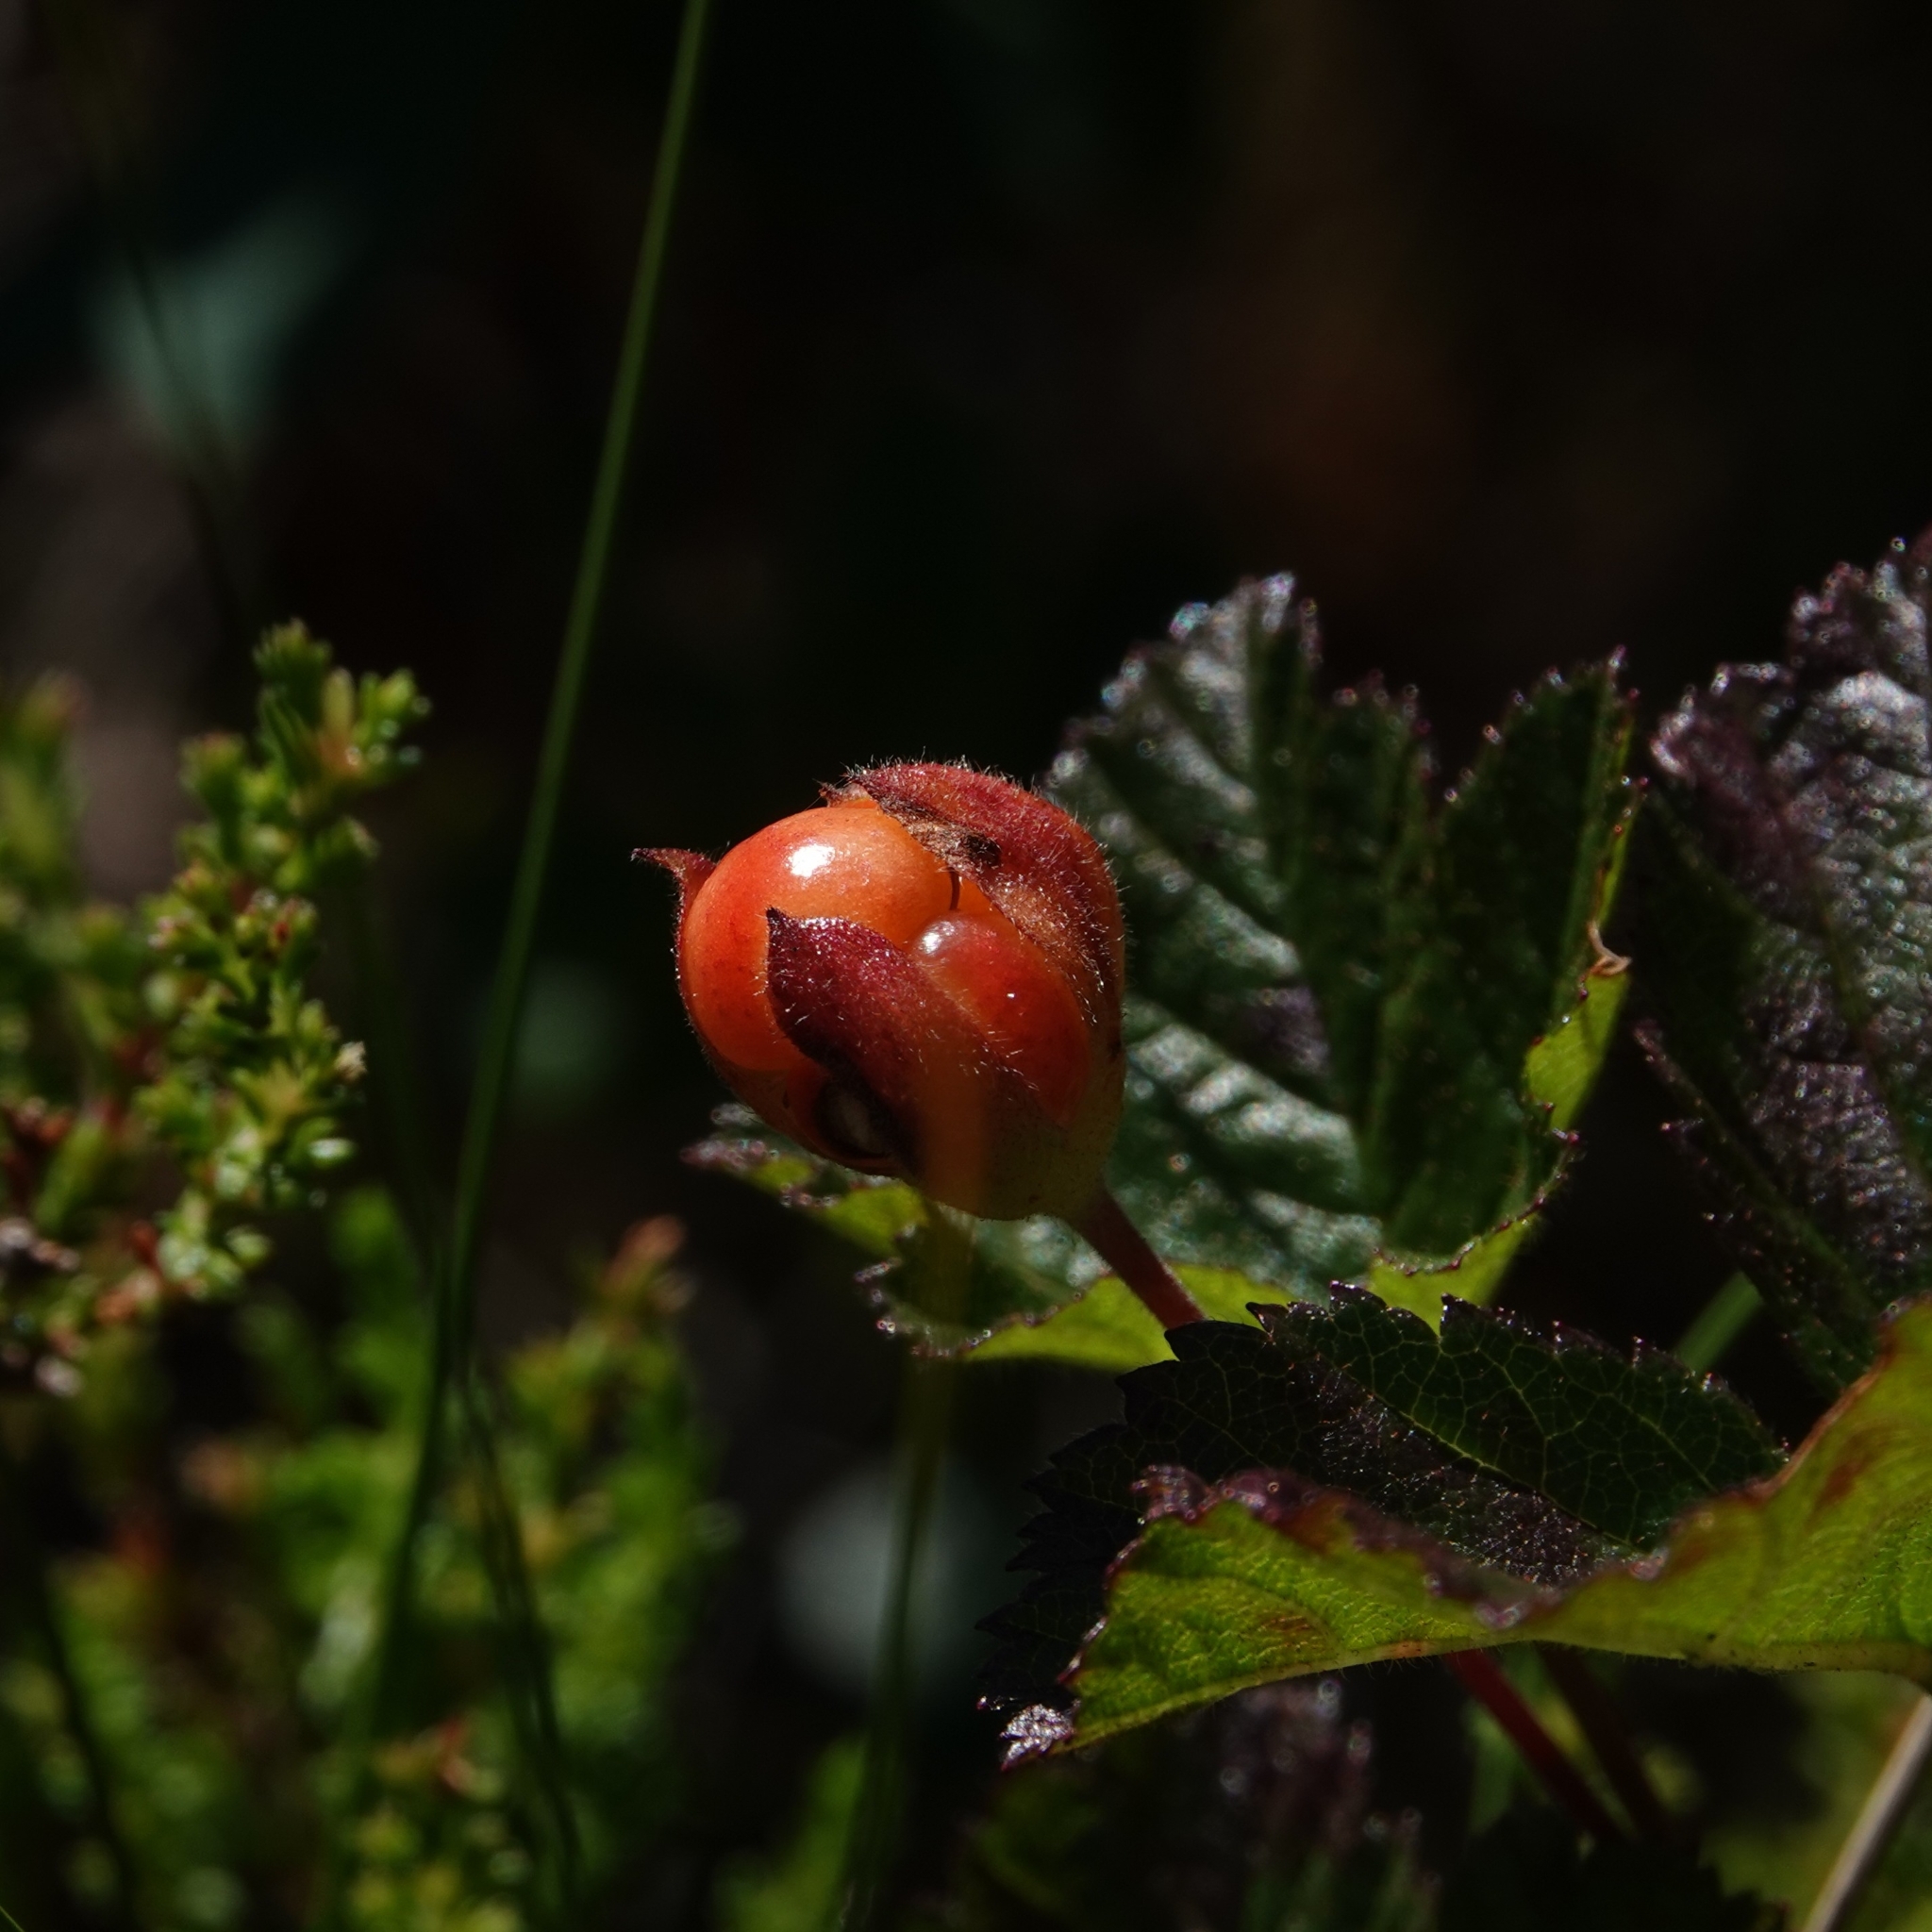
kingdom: Plantae
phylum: Tracheophyta
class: Magnoliopsida
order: Rosales
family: Rosaceae
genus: Rubus
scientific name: Rubus chamaemorus
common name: Cloudberry
